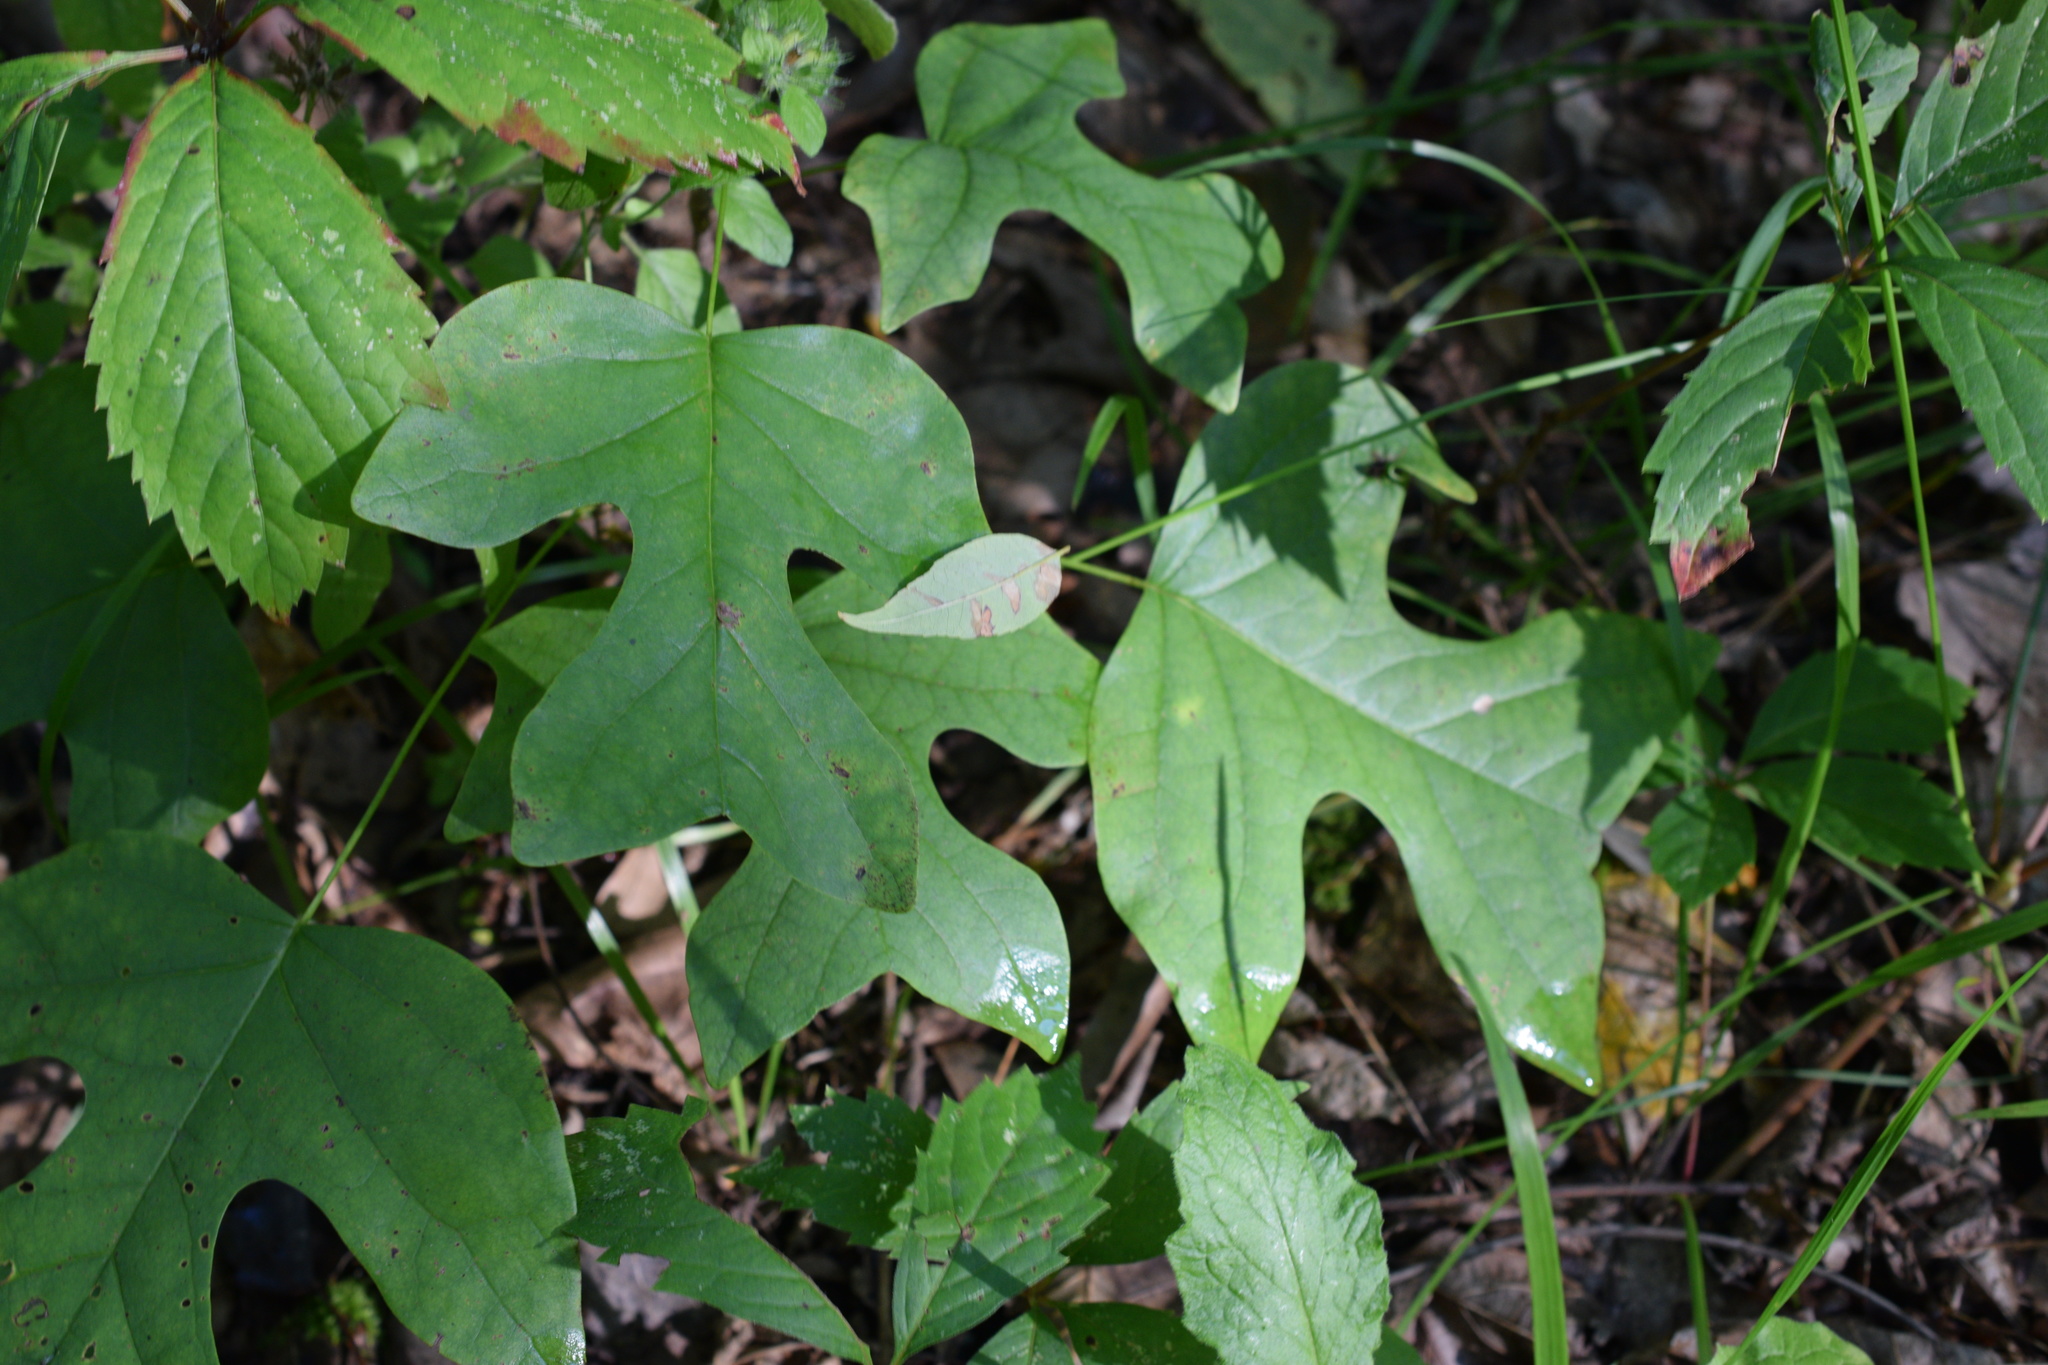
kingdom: Plantae
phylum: Tracheophyta
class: Magnoliopsida
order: Magnoliales
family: Magnoliaceae
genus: Liriodendron
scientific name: Liriodendron tulipifera
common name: Tulip tree
